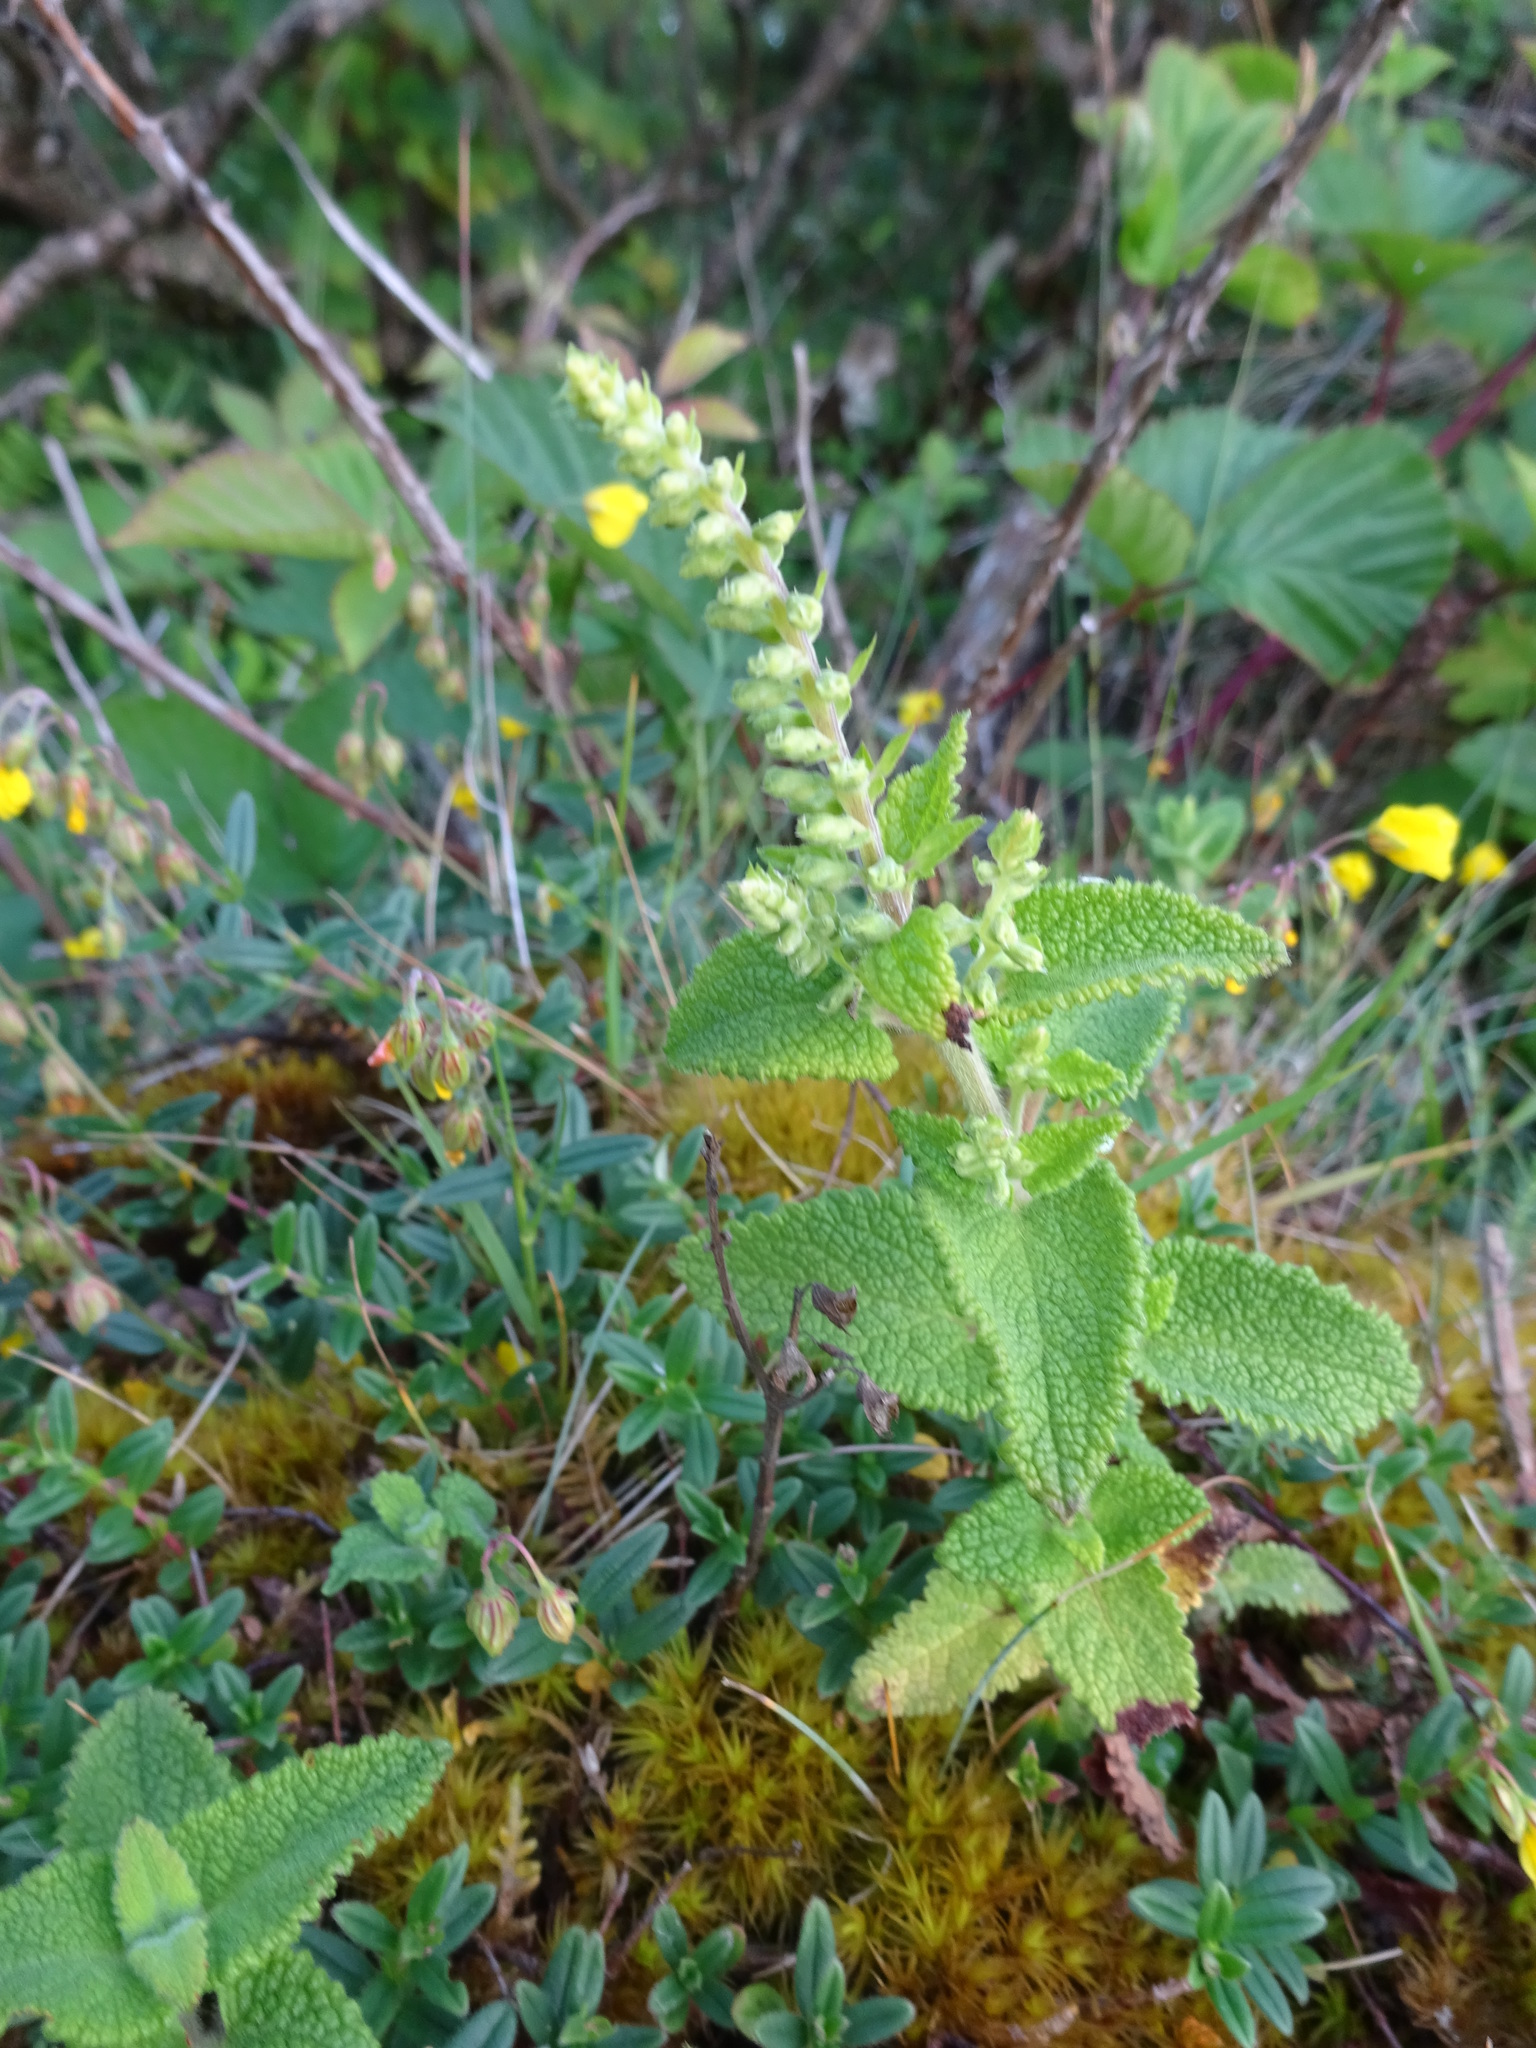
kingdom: Plantae
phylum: Tracheophyta
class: Magnoliopsida
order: Lamiales
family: Lamiaceae
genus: Teucrium
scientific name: Teucrium scorodonia
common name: Woodland germander
